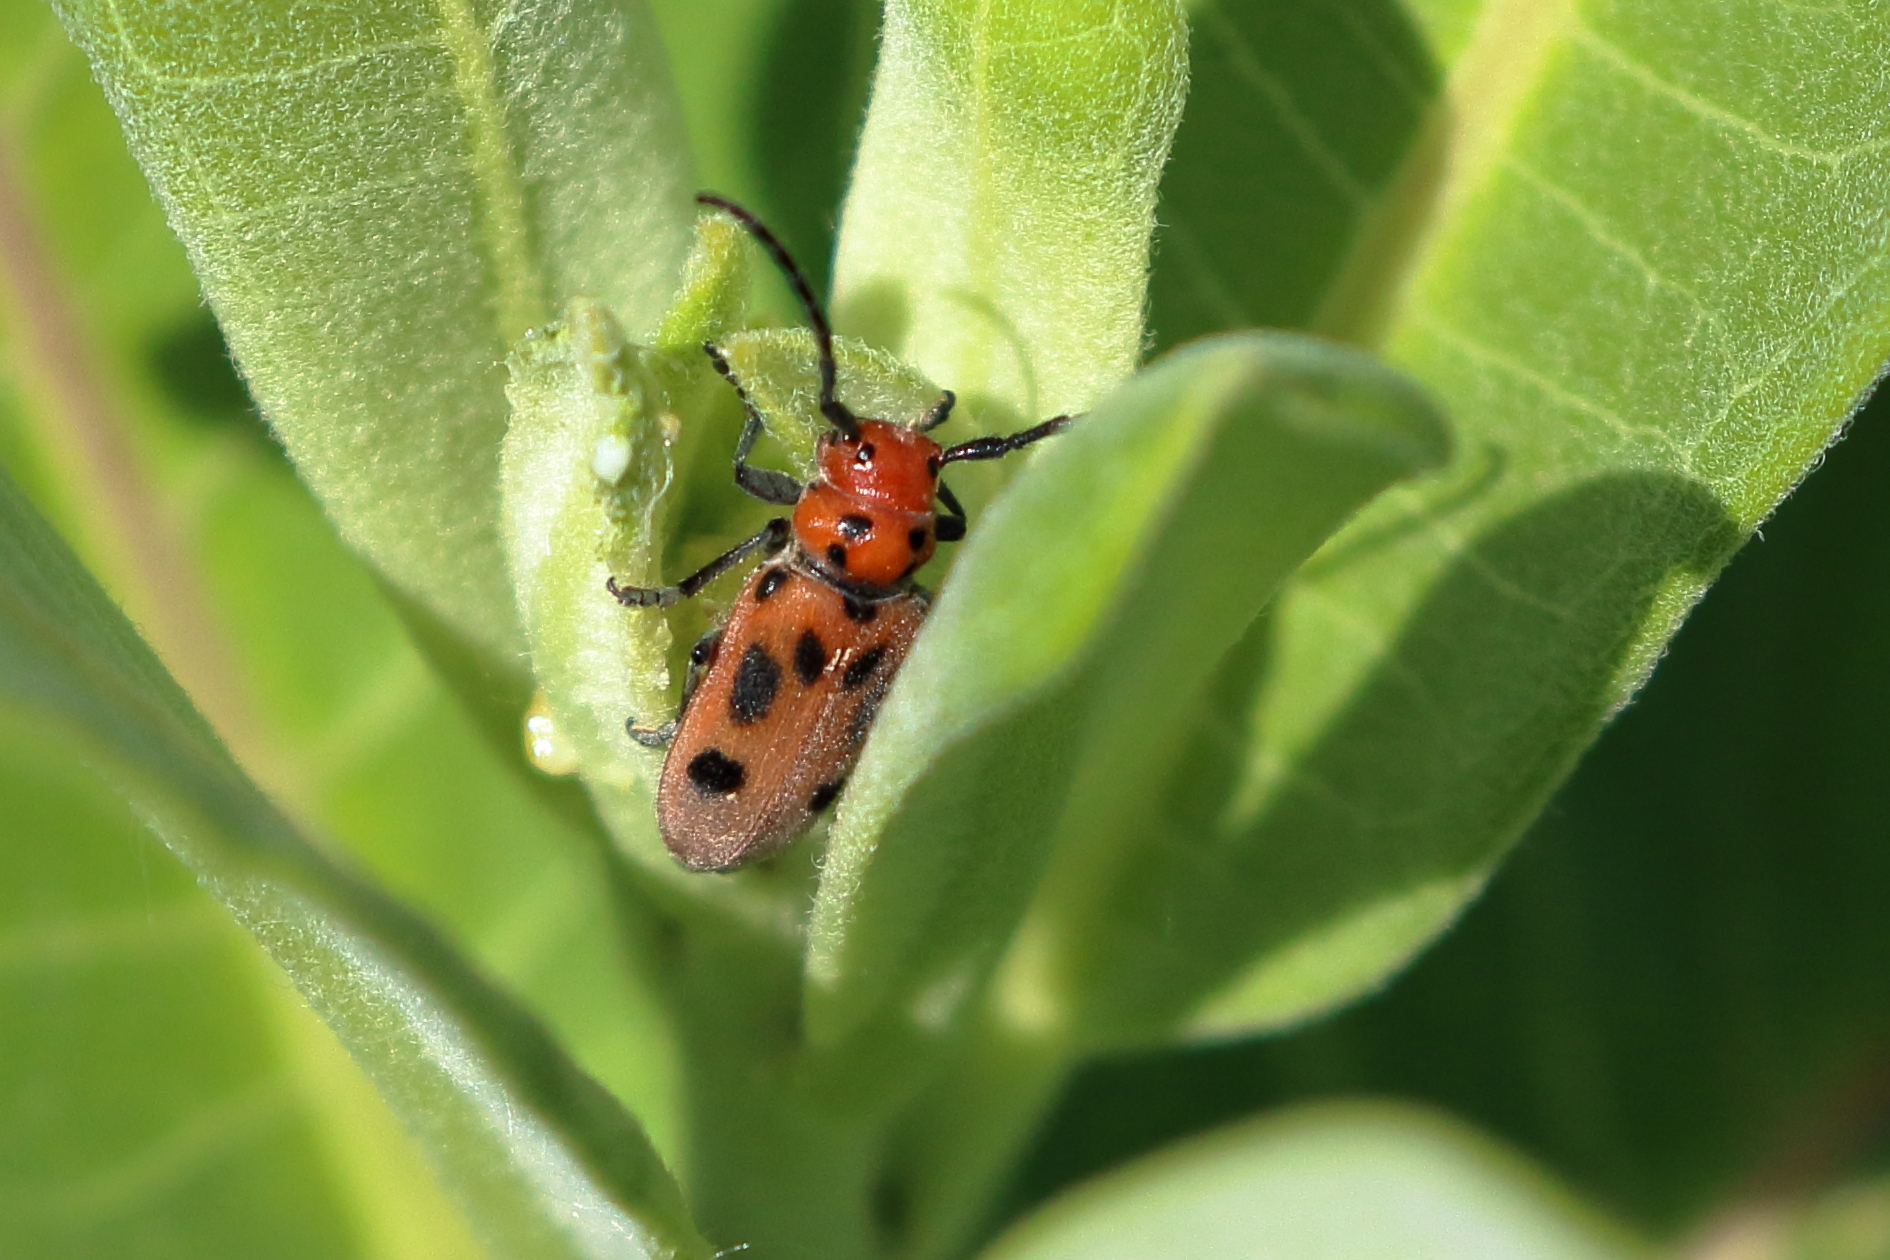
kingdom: Animalia
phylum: Arthropoda
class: Insecta
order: Coleoptera
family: Cerambycidae
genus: Tetraopes
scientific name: Tetraopes tetrophthalmus
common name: Red milkweed beetle
